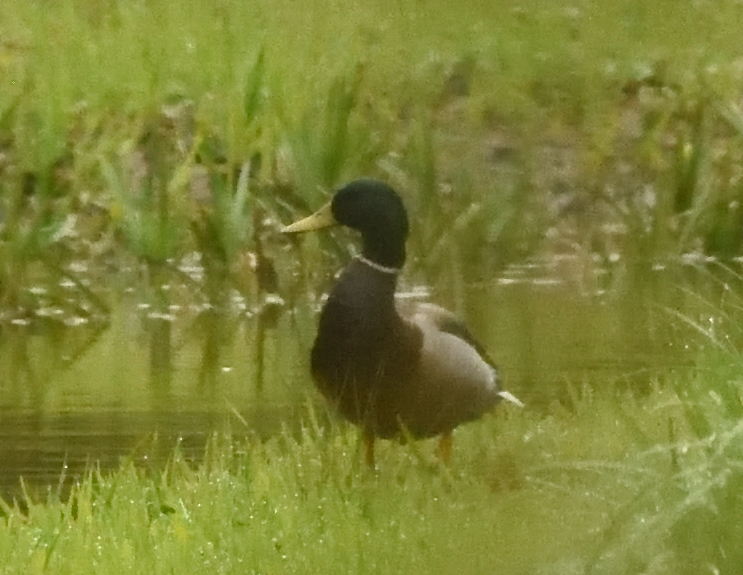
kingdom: Animalia
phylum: Chordata
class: Aves
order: Anseriformes
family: Anatidae
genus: Anas
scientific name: Anas platyrhynchos
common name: Mallard
